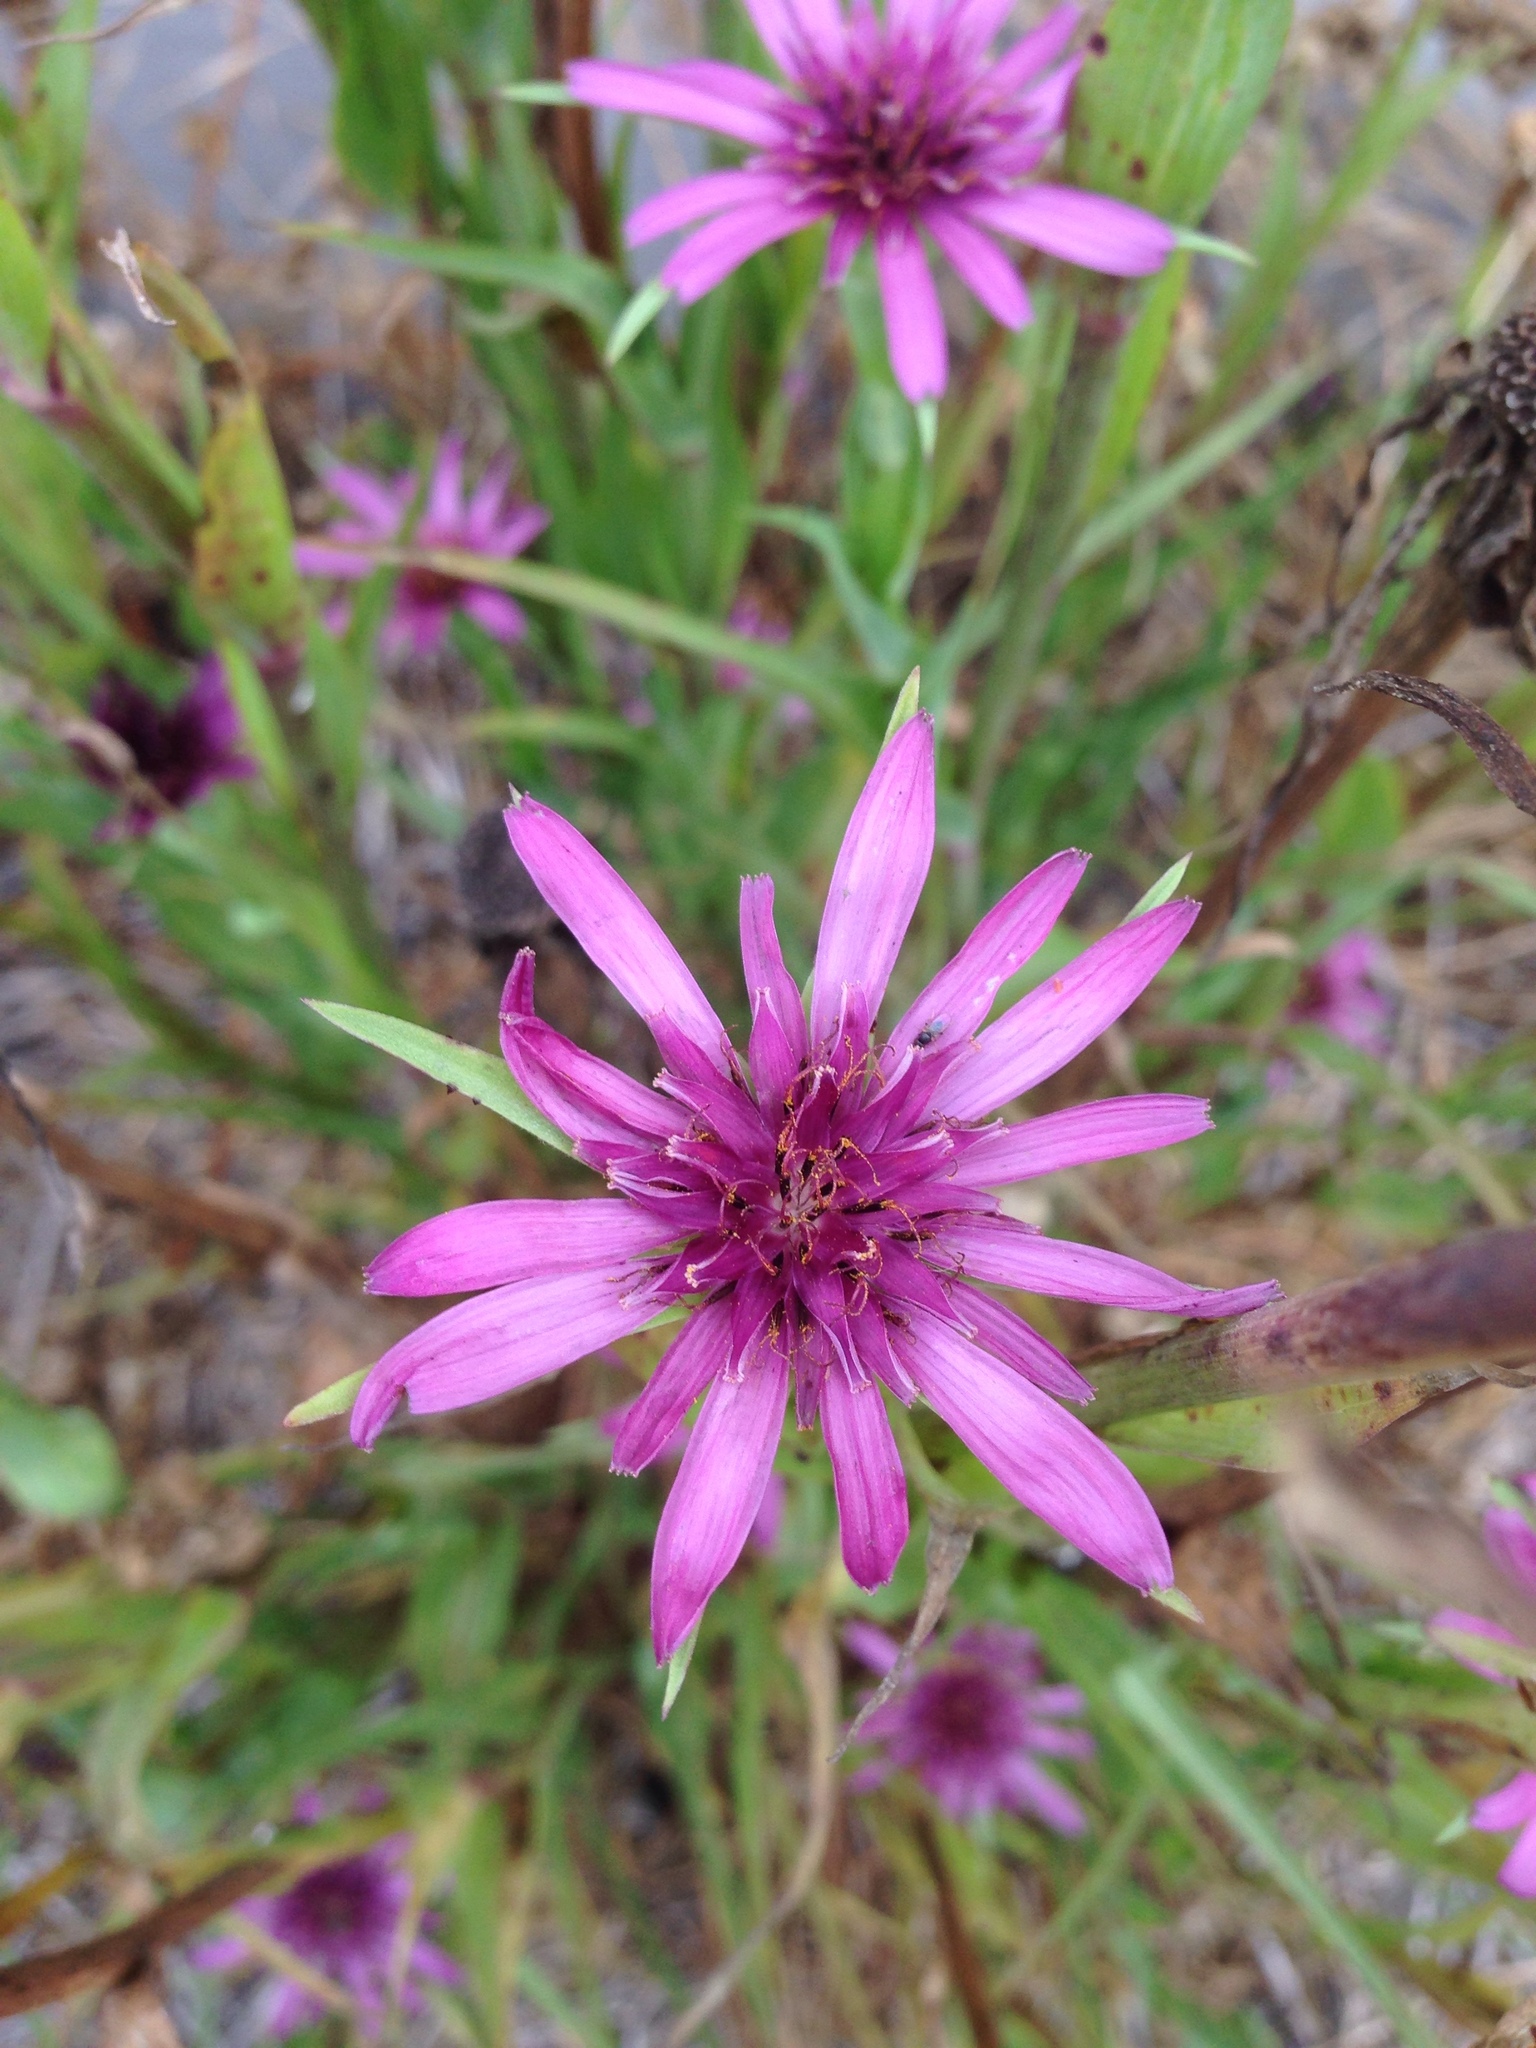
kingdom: Plantae
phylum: Tracheophyta
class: Magnoliopsida
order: Asterales
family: Asteraceae
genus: Tragopogon
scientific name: Tragopogon porrifolius
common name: Salsify
